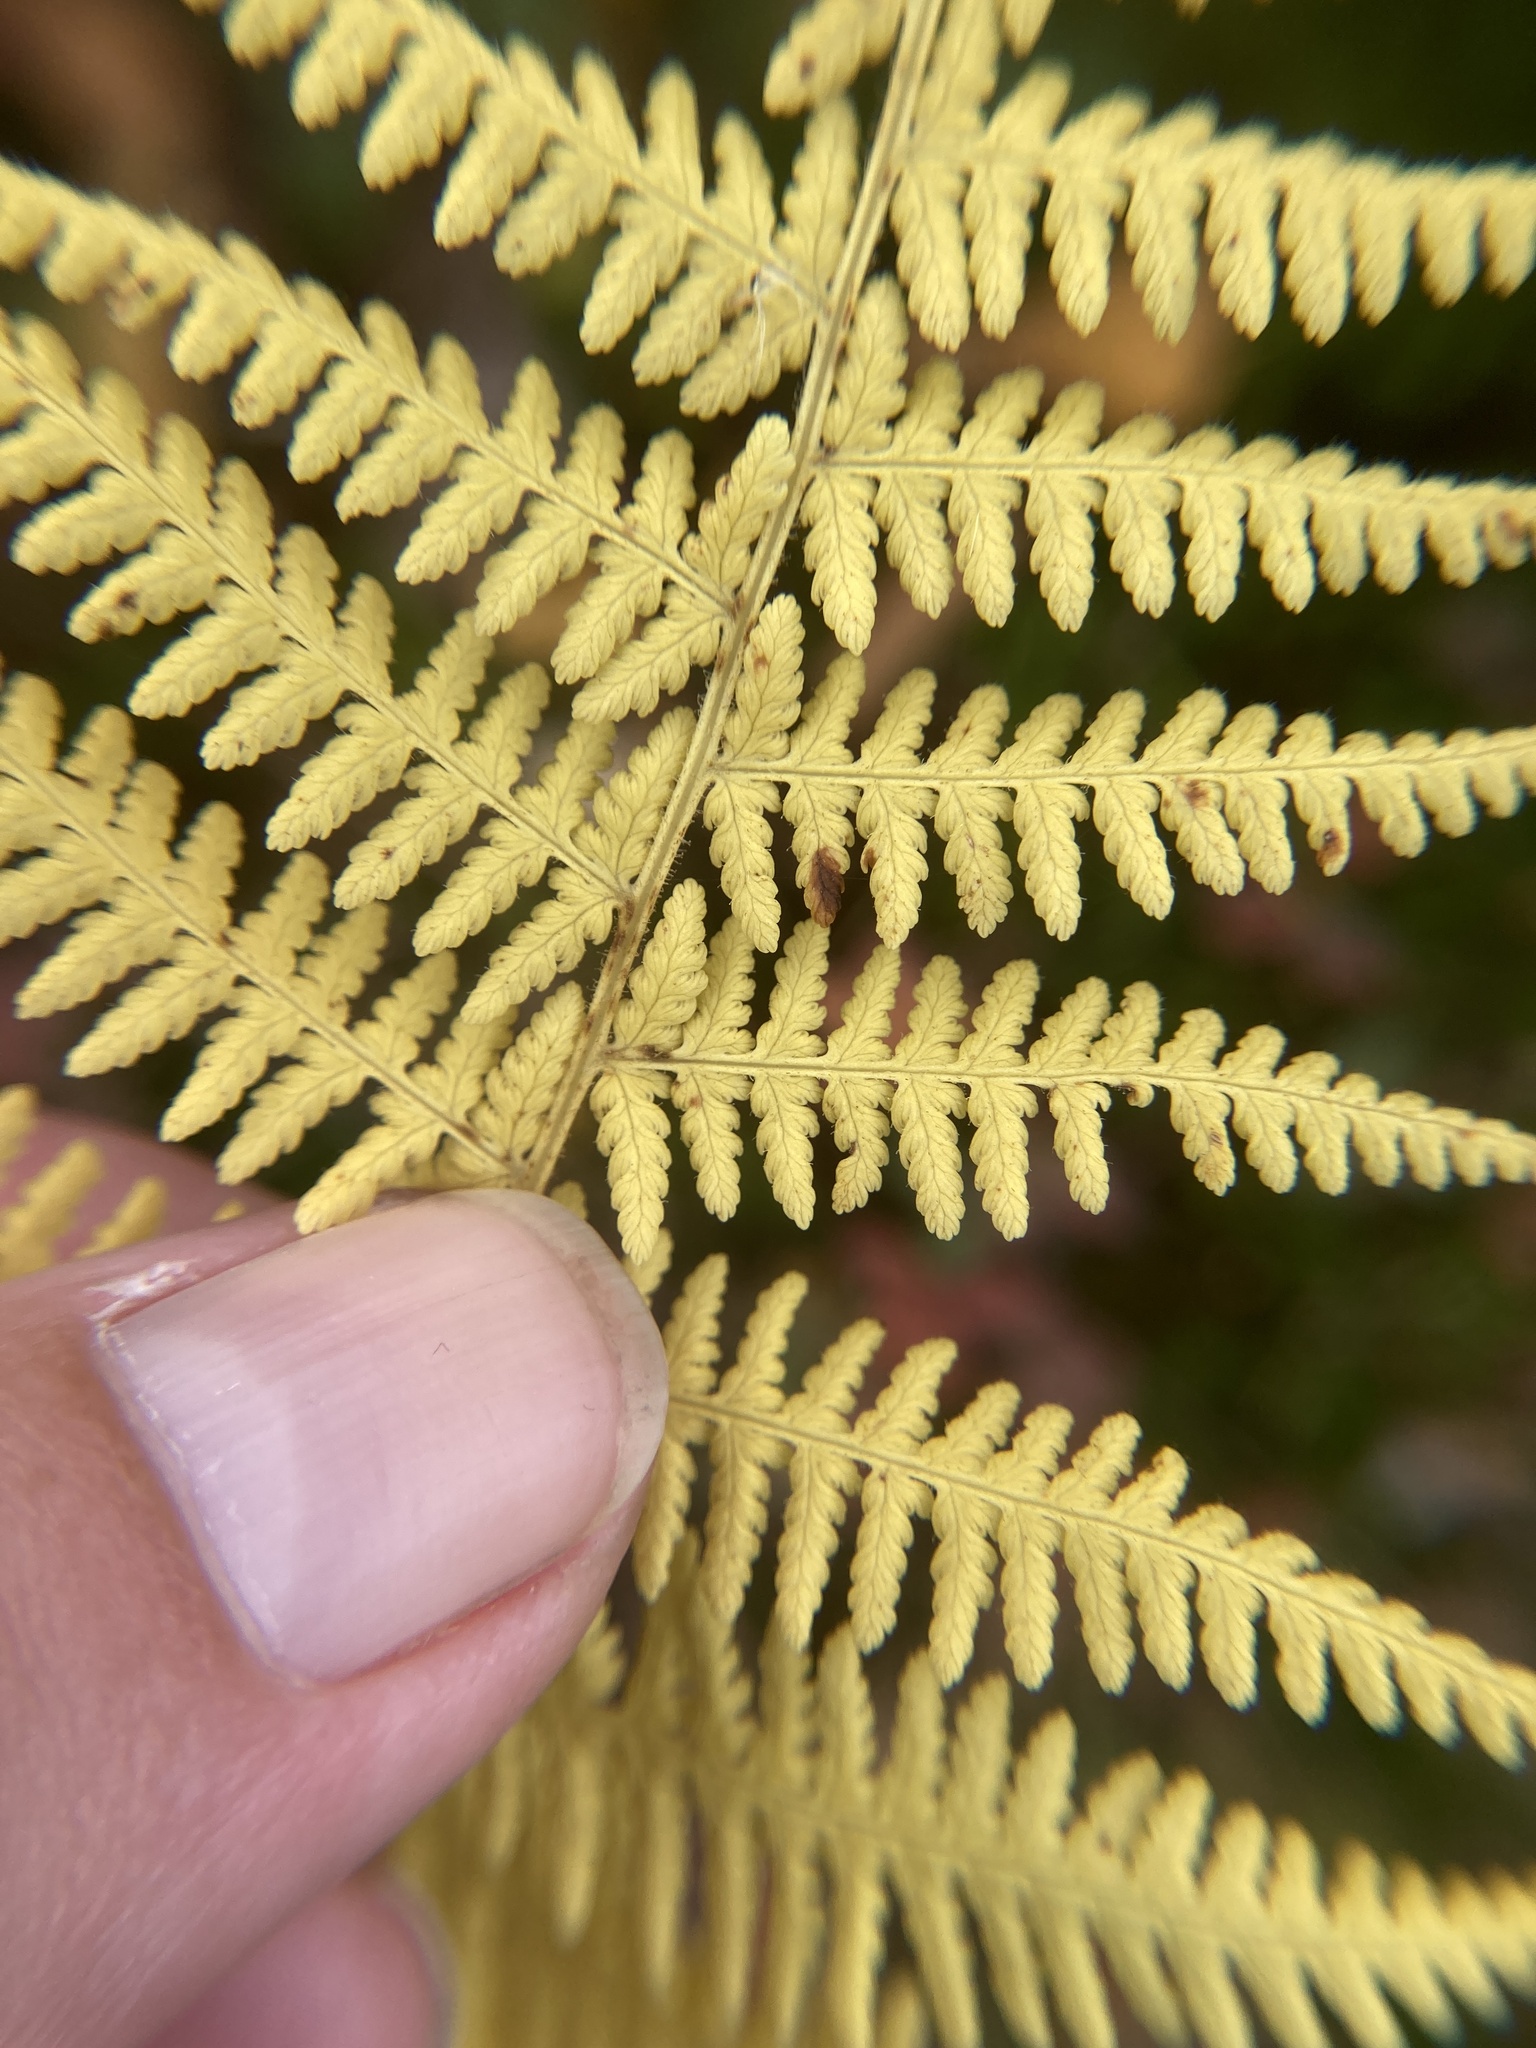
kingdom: Plantae
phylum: Tracheophyta
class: Polypodiopsida
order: Polypodiales
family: Dennstaedtiaceae
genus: Sitobolium
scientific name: Sitobolium punctilobum
